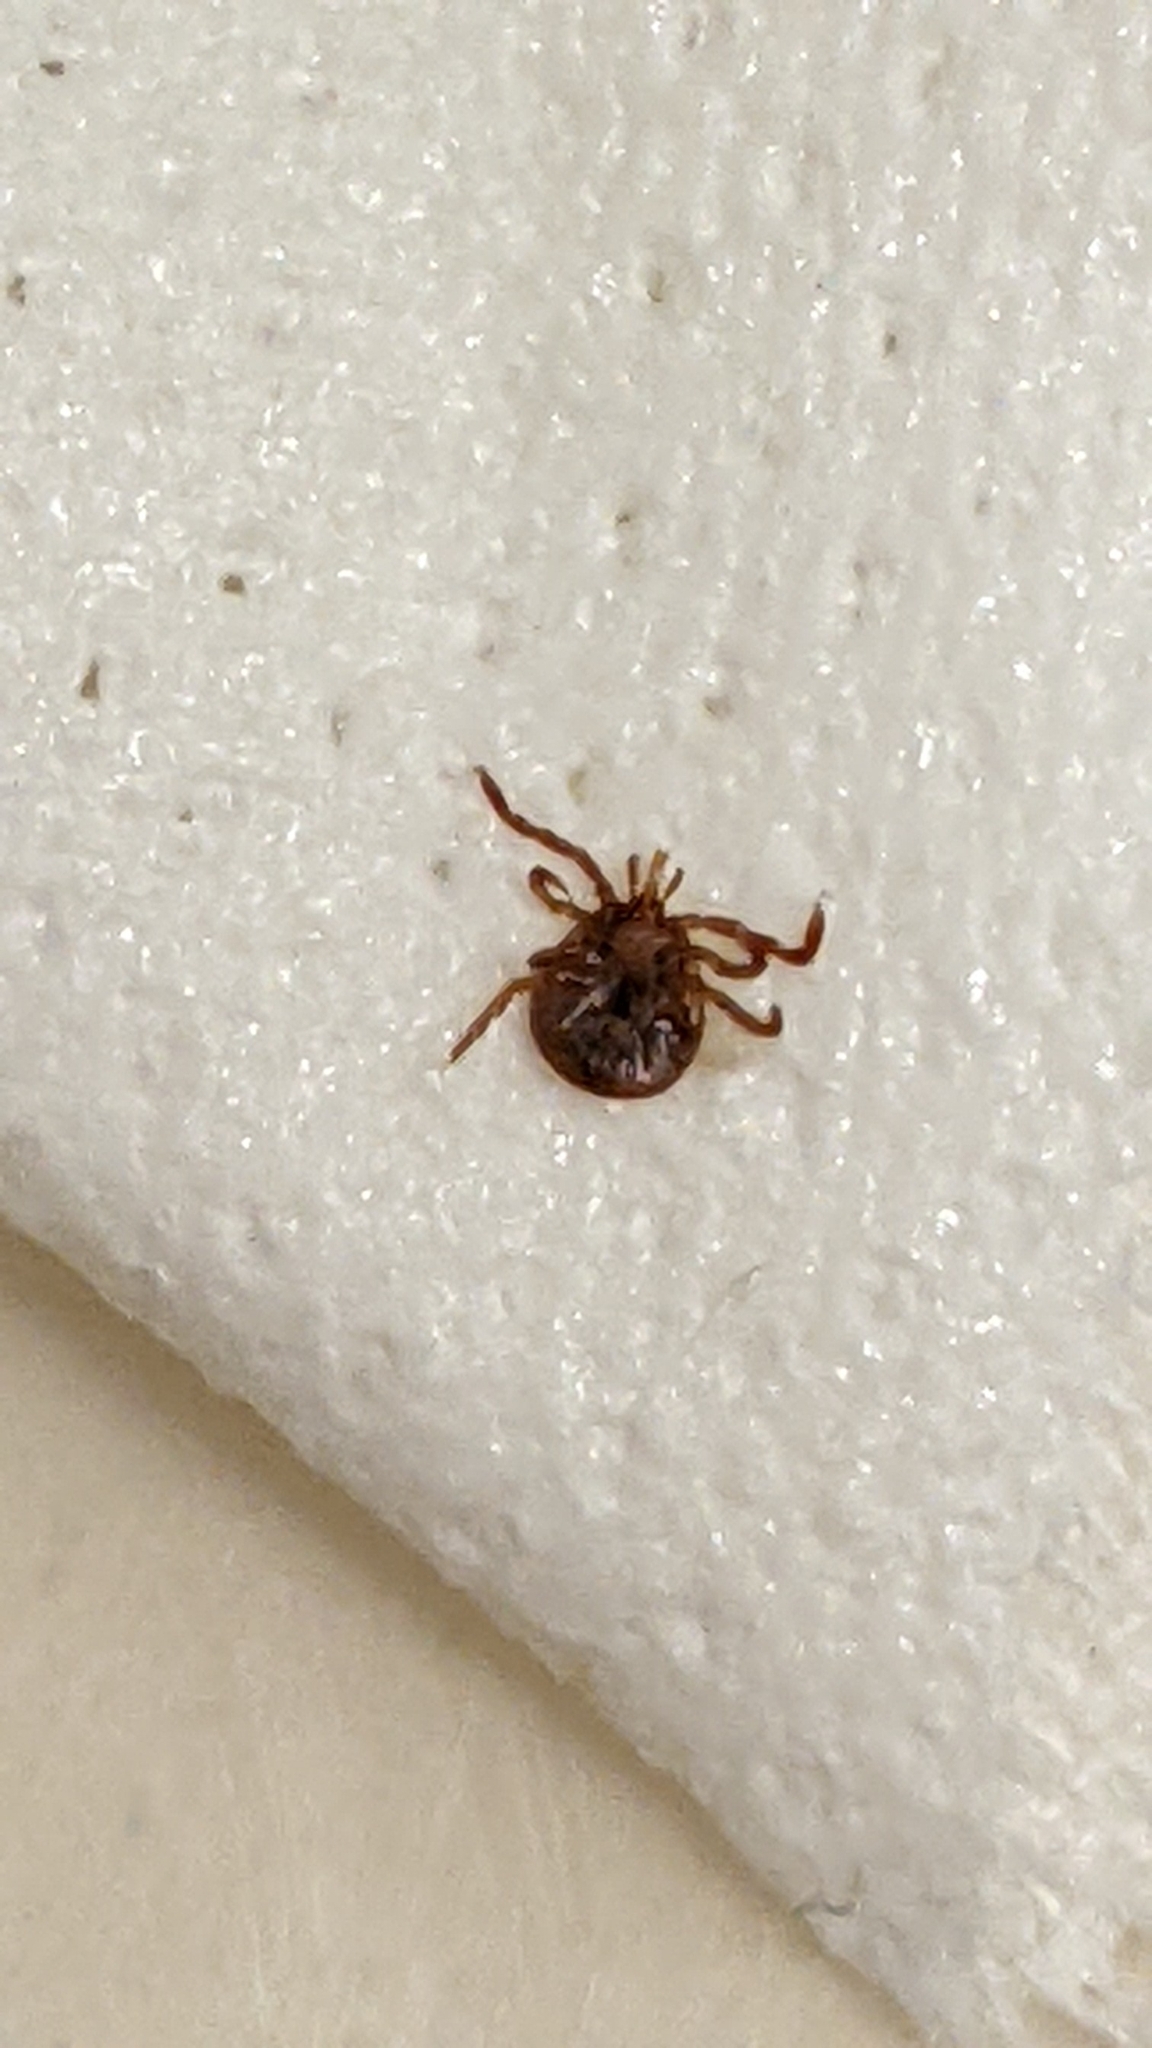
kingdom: Animalia
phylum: Arthropoda
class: Arachnida
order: Ixodida
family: Ixodidae
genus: Amblyomma
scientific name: Amblyomma americanum
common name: Lone star tick
